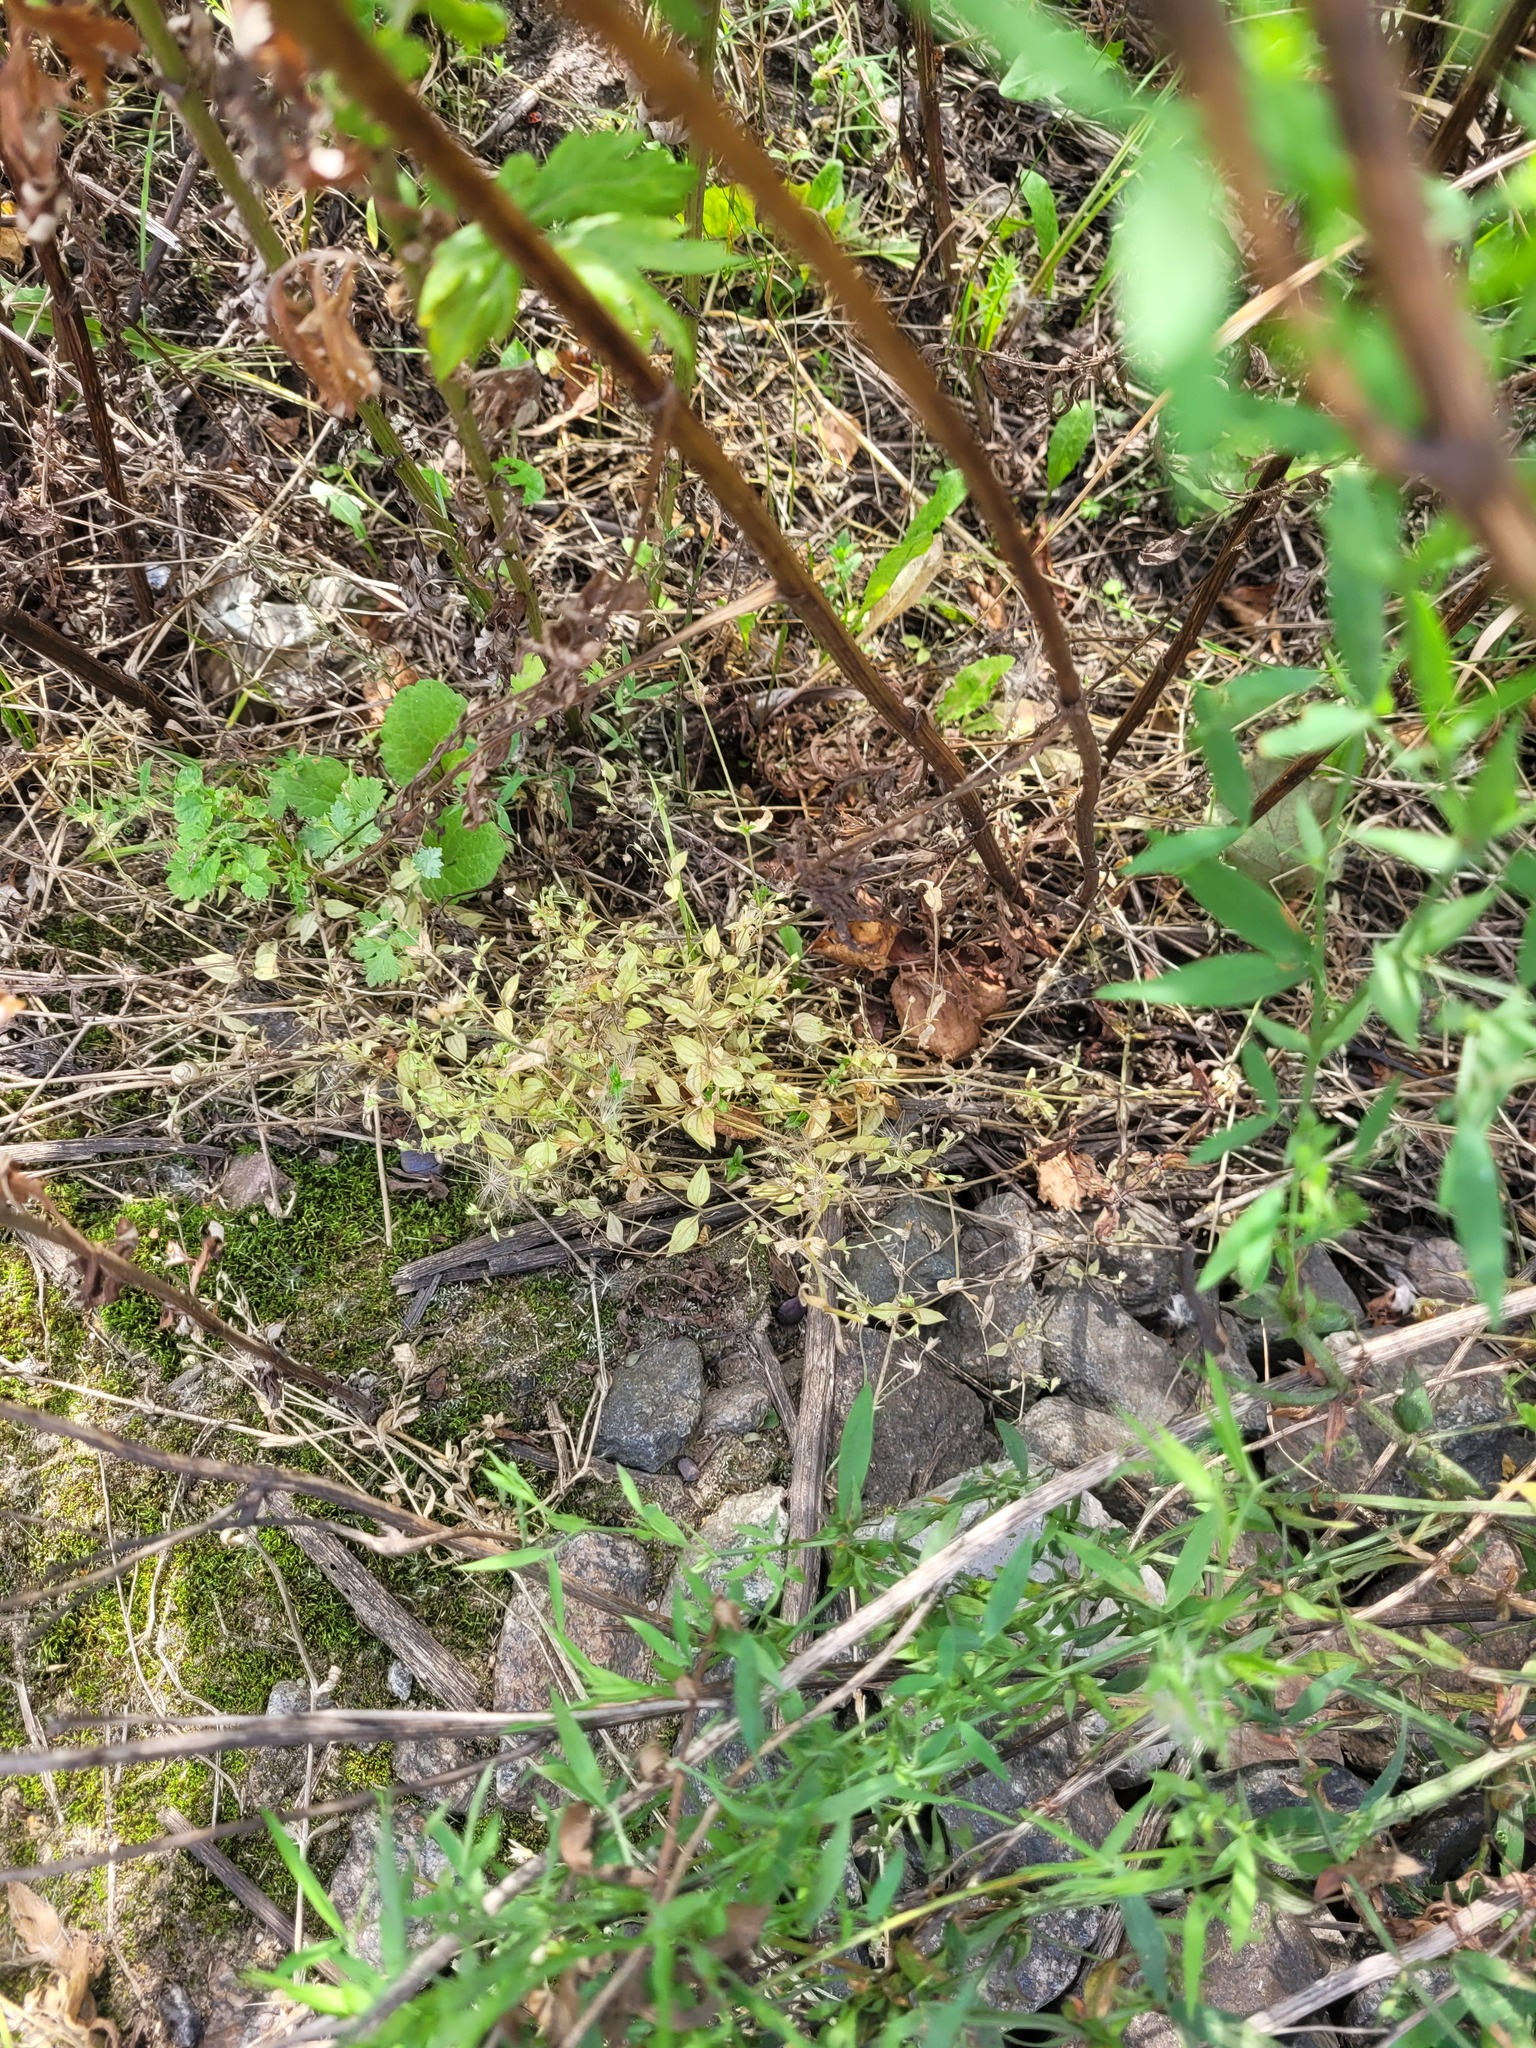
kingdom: Plantae
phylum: Tracheophyta
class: Magnoliopsida
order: Caryophyllales
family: Caryophyllaceae
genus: Moehringia
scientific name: Moehringia trinervia
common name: Three-nerved sandwort
